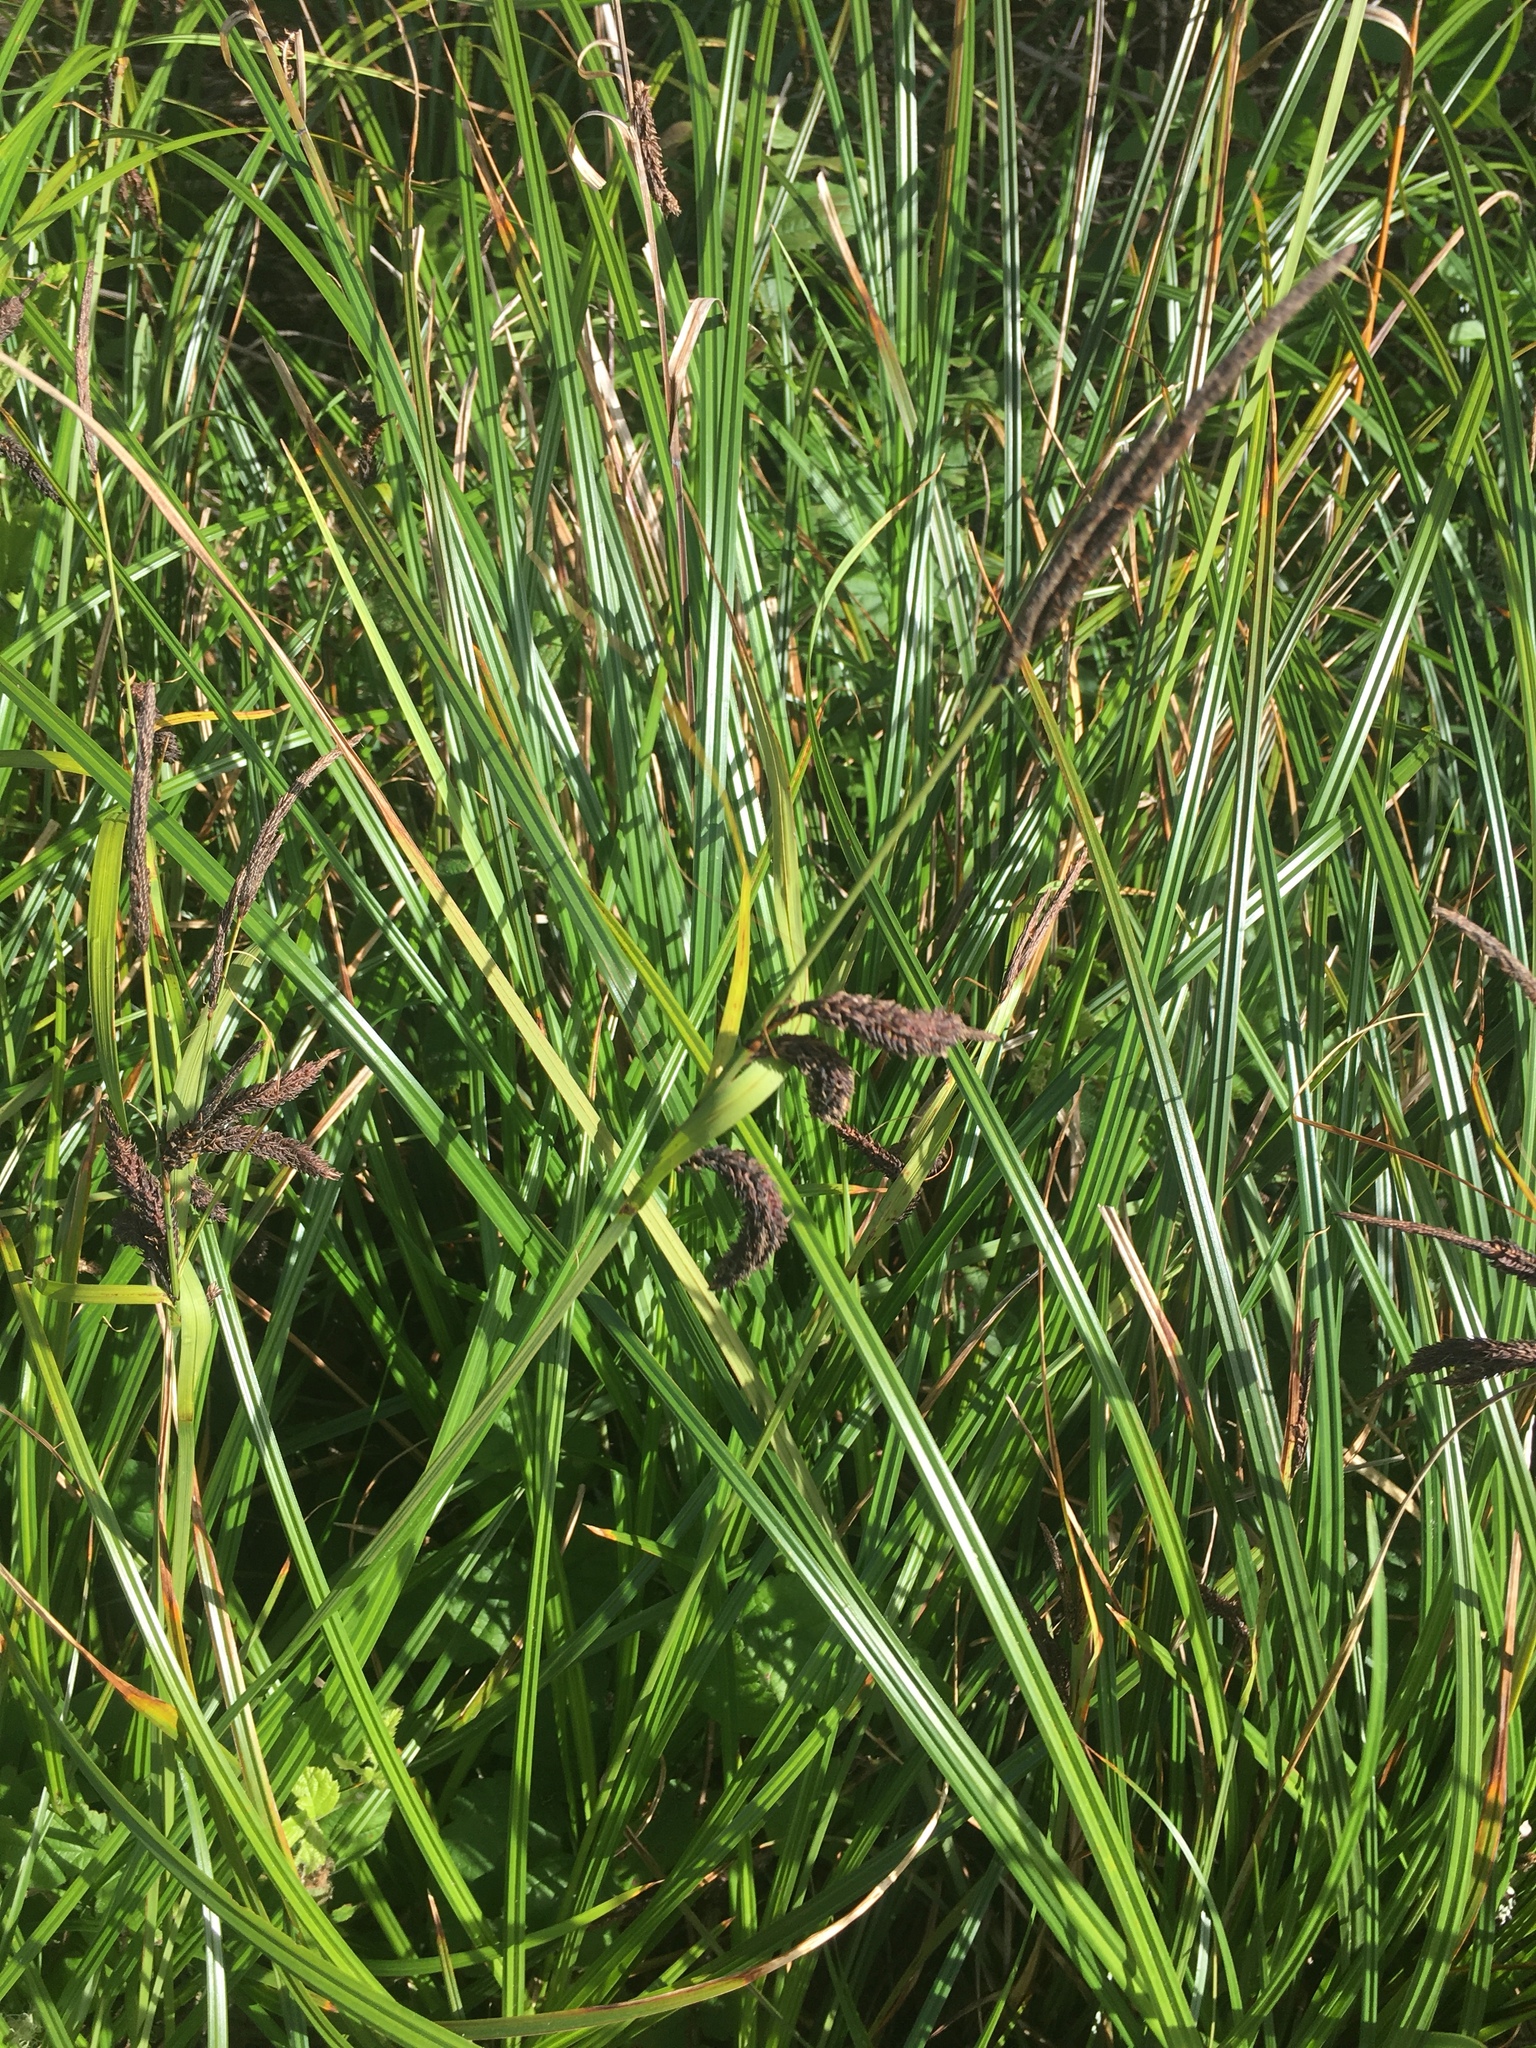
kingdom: Plantae
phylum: Tracheophyta
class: Liliopsida
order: Poales
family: Cyperaceae
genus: Carex
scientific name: Carex obnupta
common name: Slough sedge
